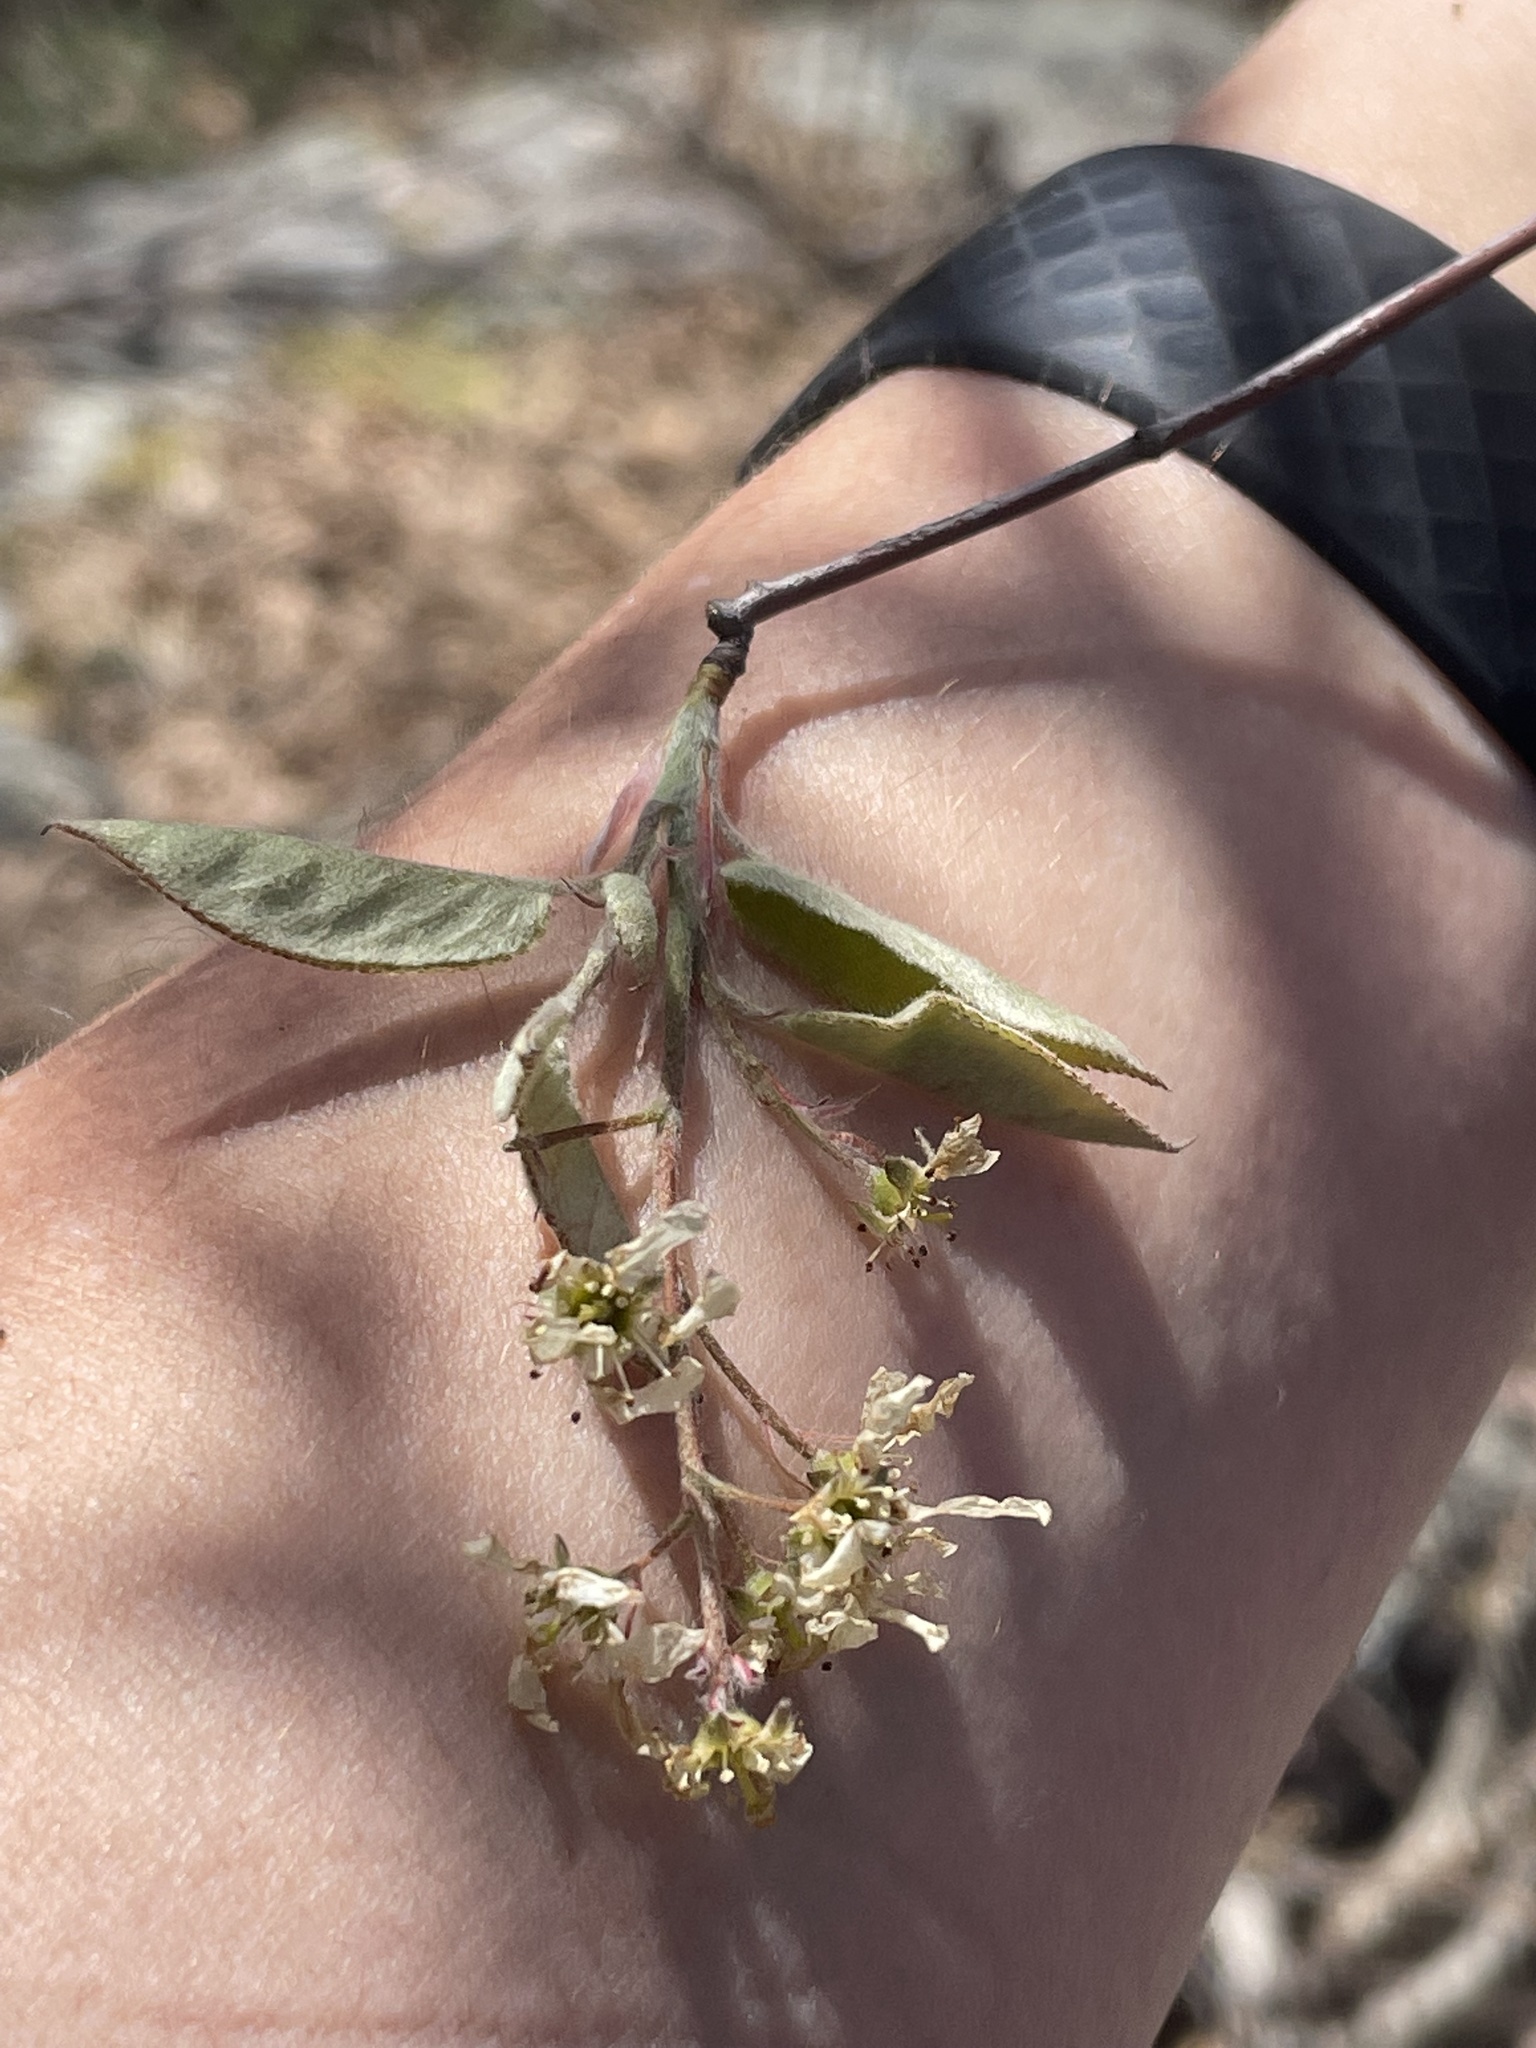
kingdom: Plantae
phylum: Tracheophyta
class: Magnoliopsida
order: Rosales
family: Rosaceae
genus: Amelanchier
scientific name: Amelanchier arborea
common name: Downy serviceberry
